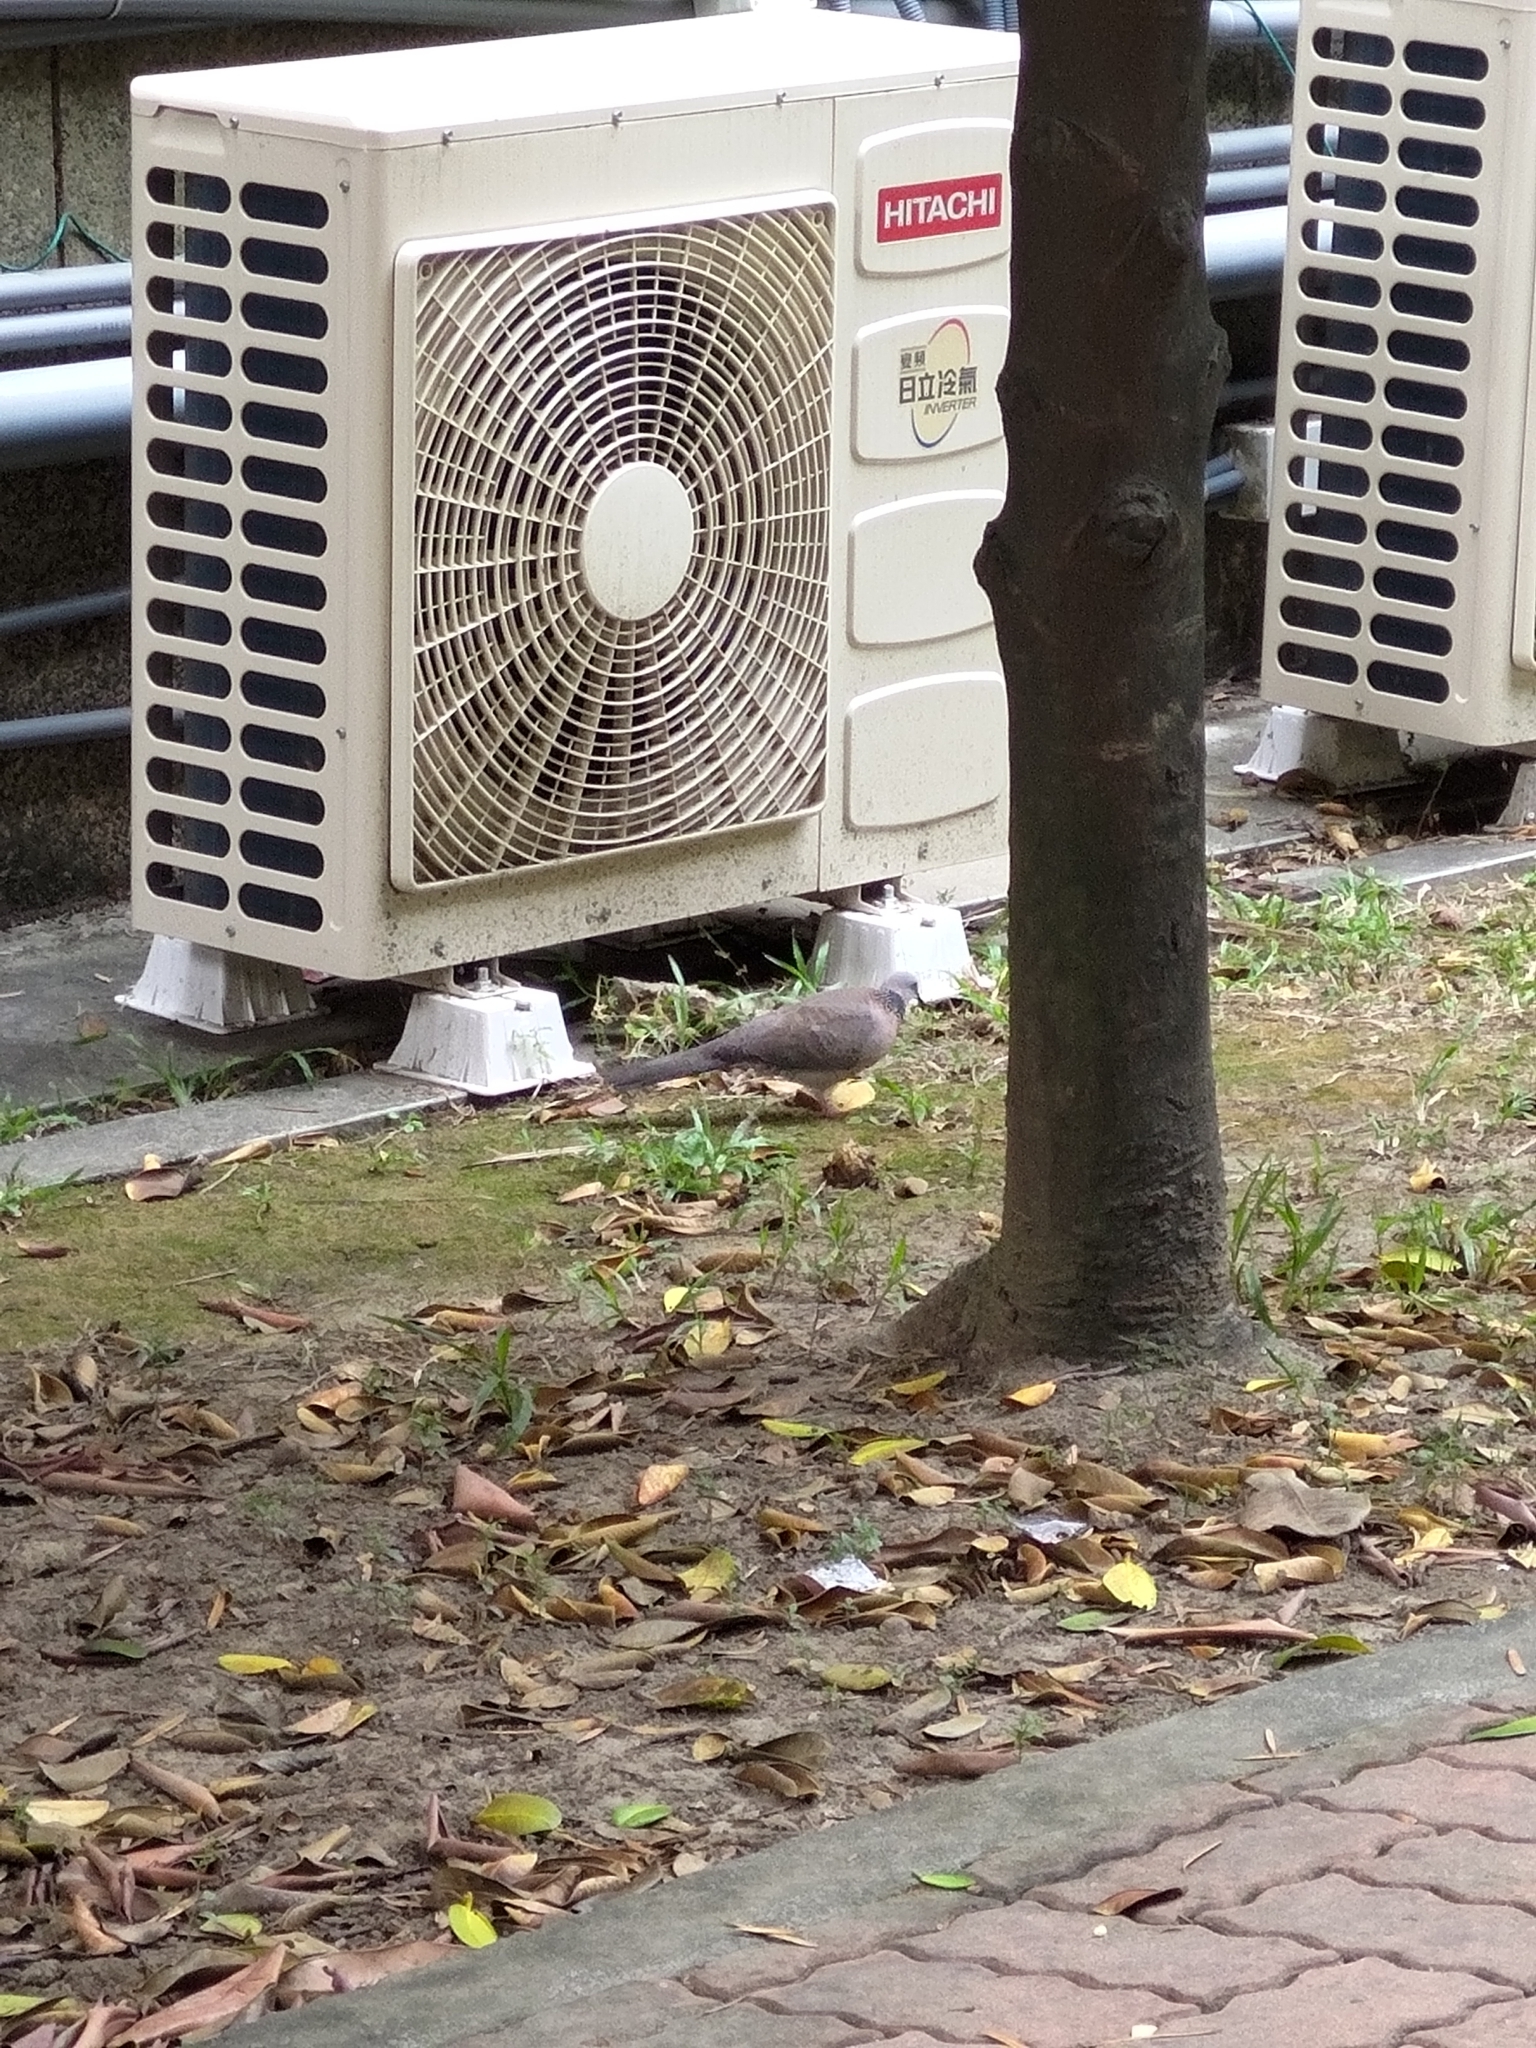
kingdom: Animalia
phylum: Chordata
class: Aves
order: Columbiformes
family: Columbidae
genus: Spilopelia
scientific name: Spilopelia chinensis
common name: Spotted dove
